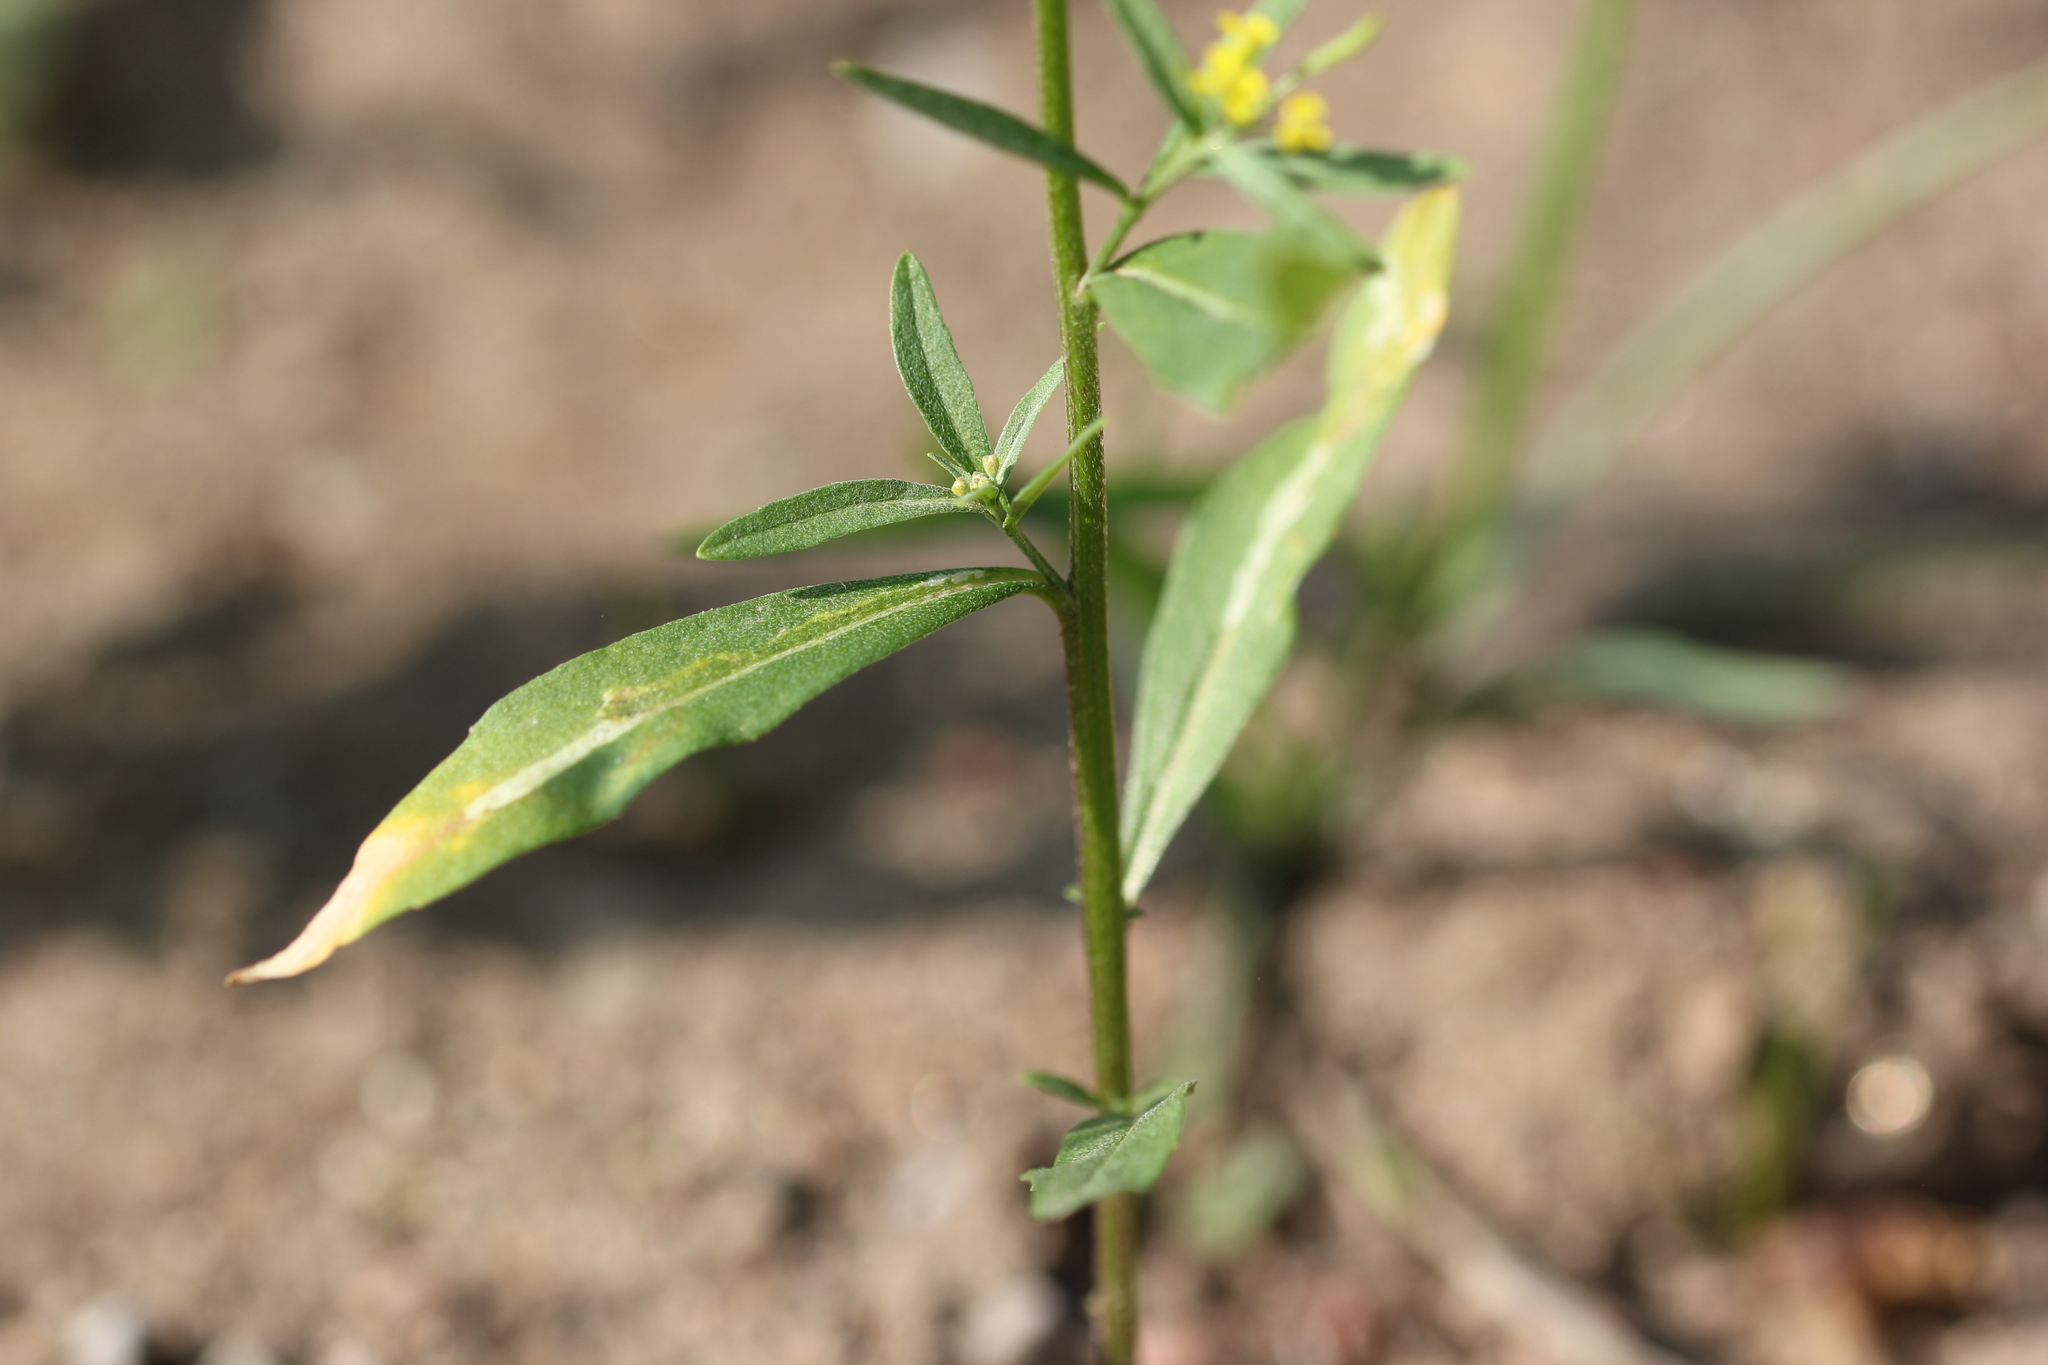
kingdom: Plantae
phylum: Tracheophyta
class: Magnoliopsida
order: Brassicales
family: Brassicaceae
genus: Erysimum
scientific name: Erysimum cheiranthoides
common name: Treacle mustard
